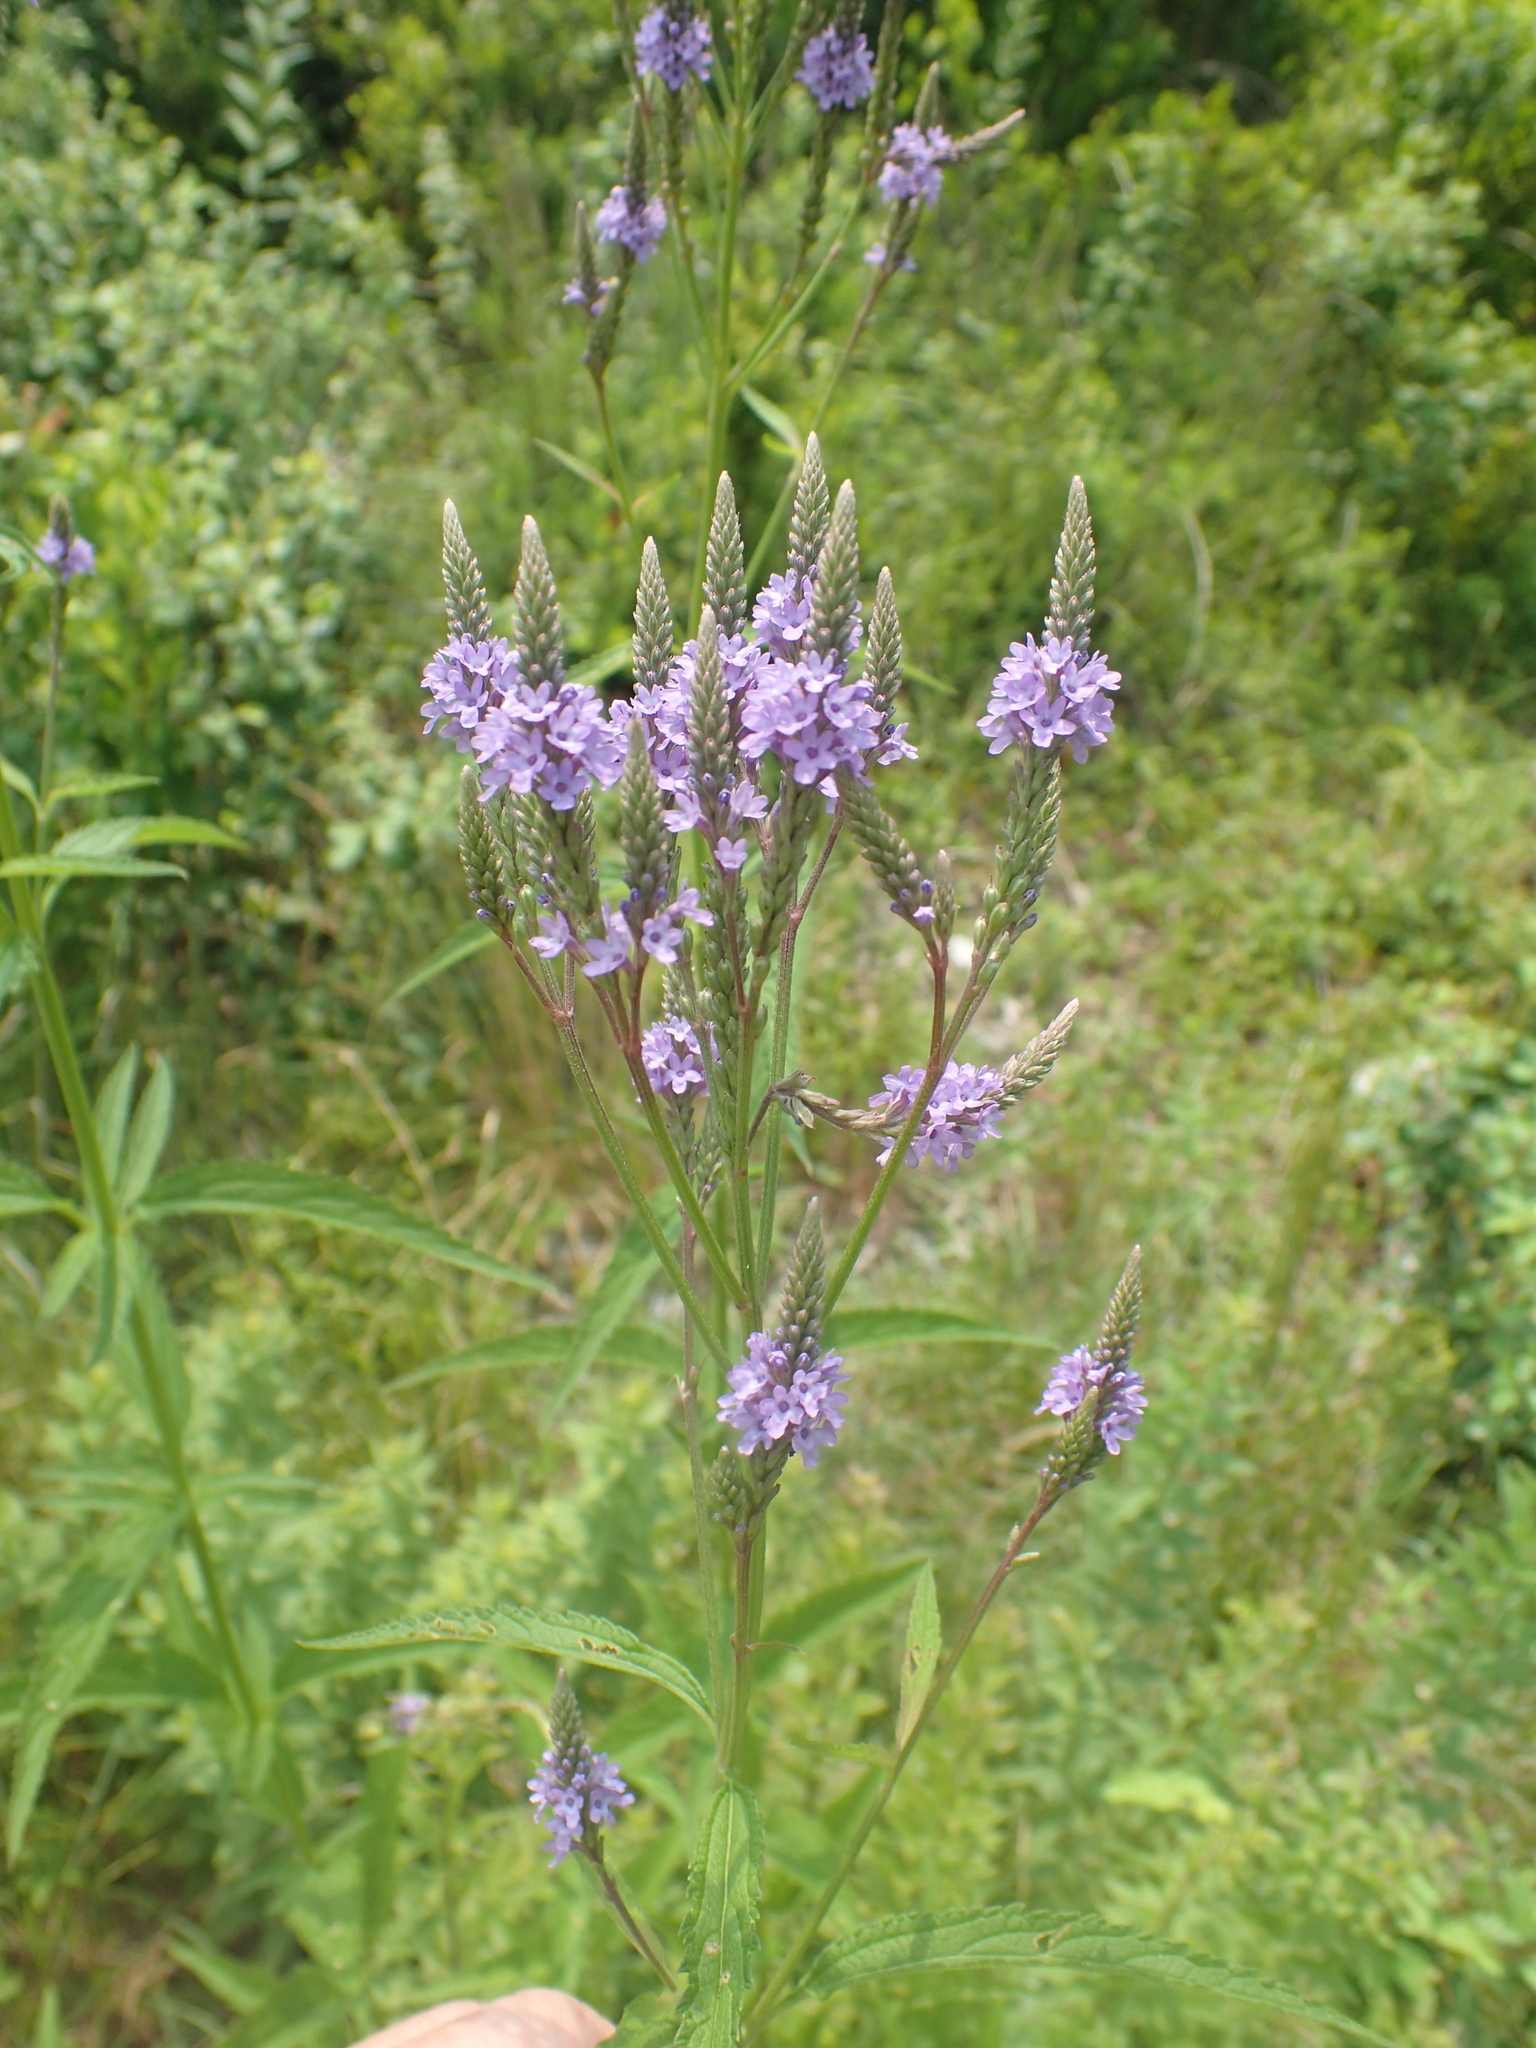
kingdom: Plantae
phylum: Tracheophyta
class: Magnoliopsida
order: Lamiales
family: Verbenaceae
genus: Verbena
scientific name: Verbena hastata
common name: American blue vervain
